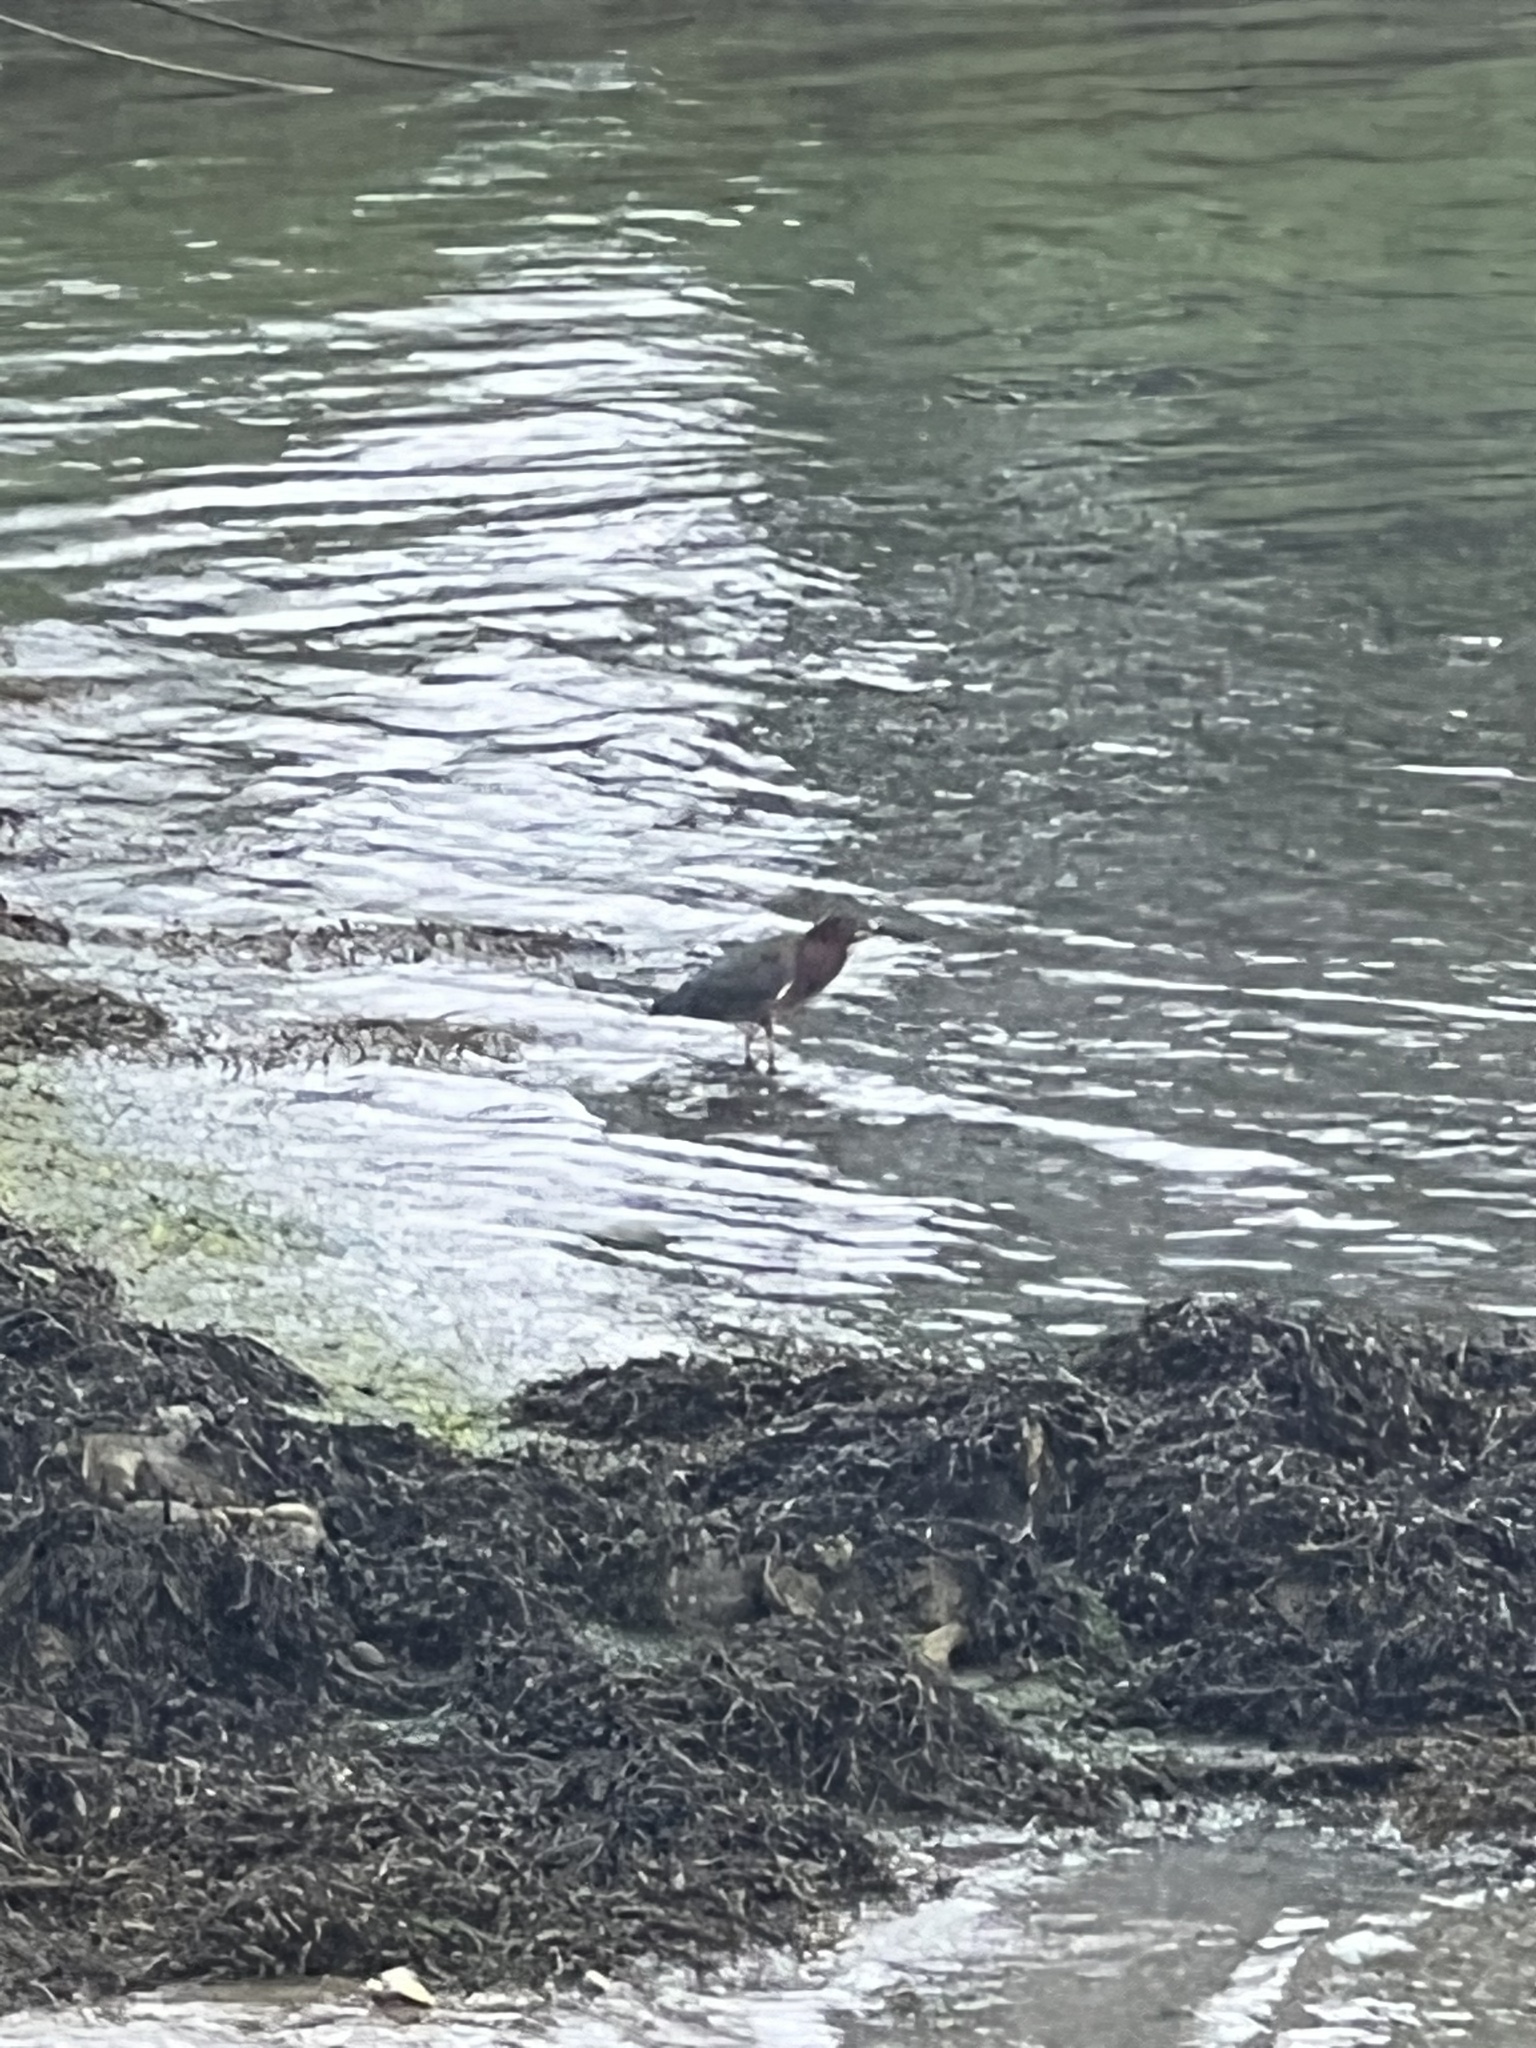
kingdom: Animalia
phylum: Chordata
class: Aves
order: Pelecaniformes
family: Ardeidae
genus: Butorides
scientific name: Butorides virescens
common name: Green heron
